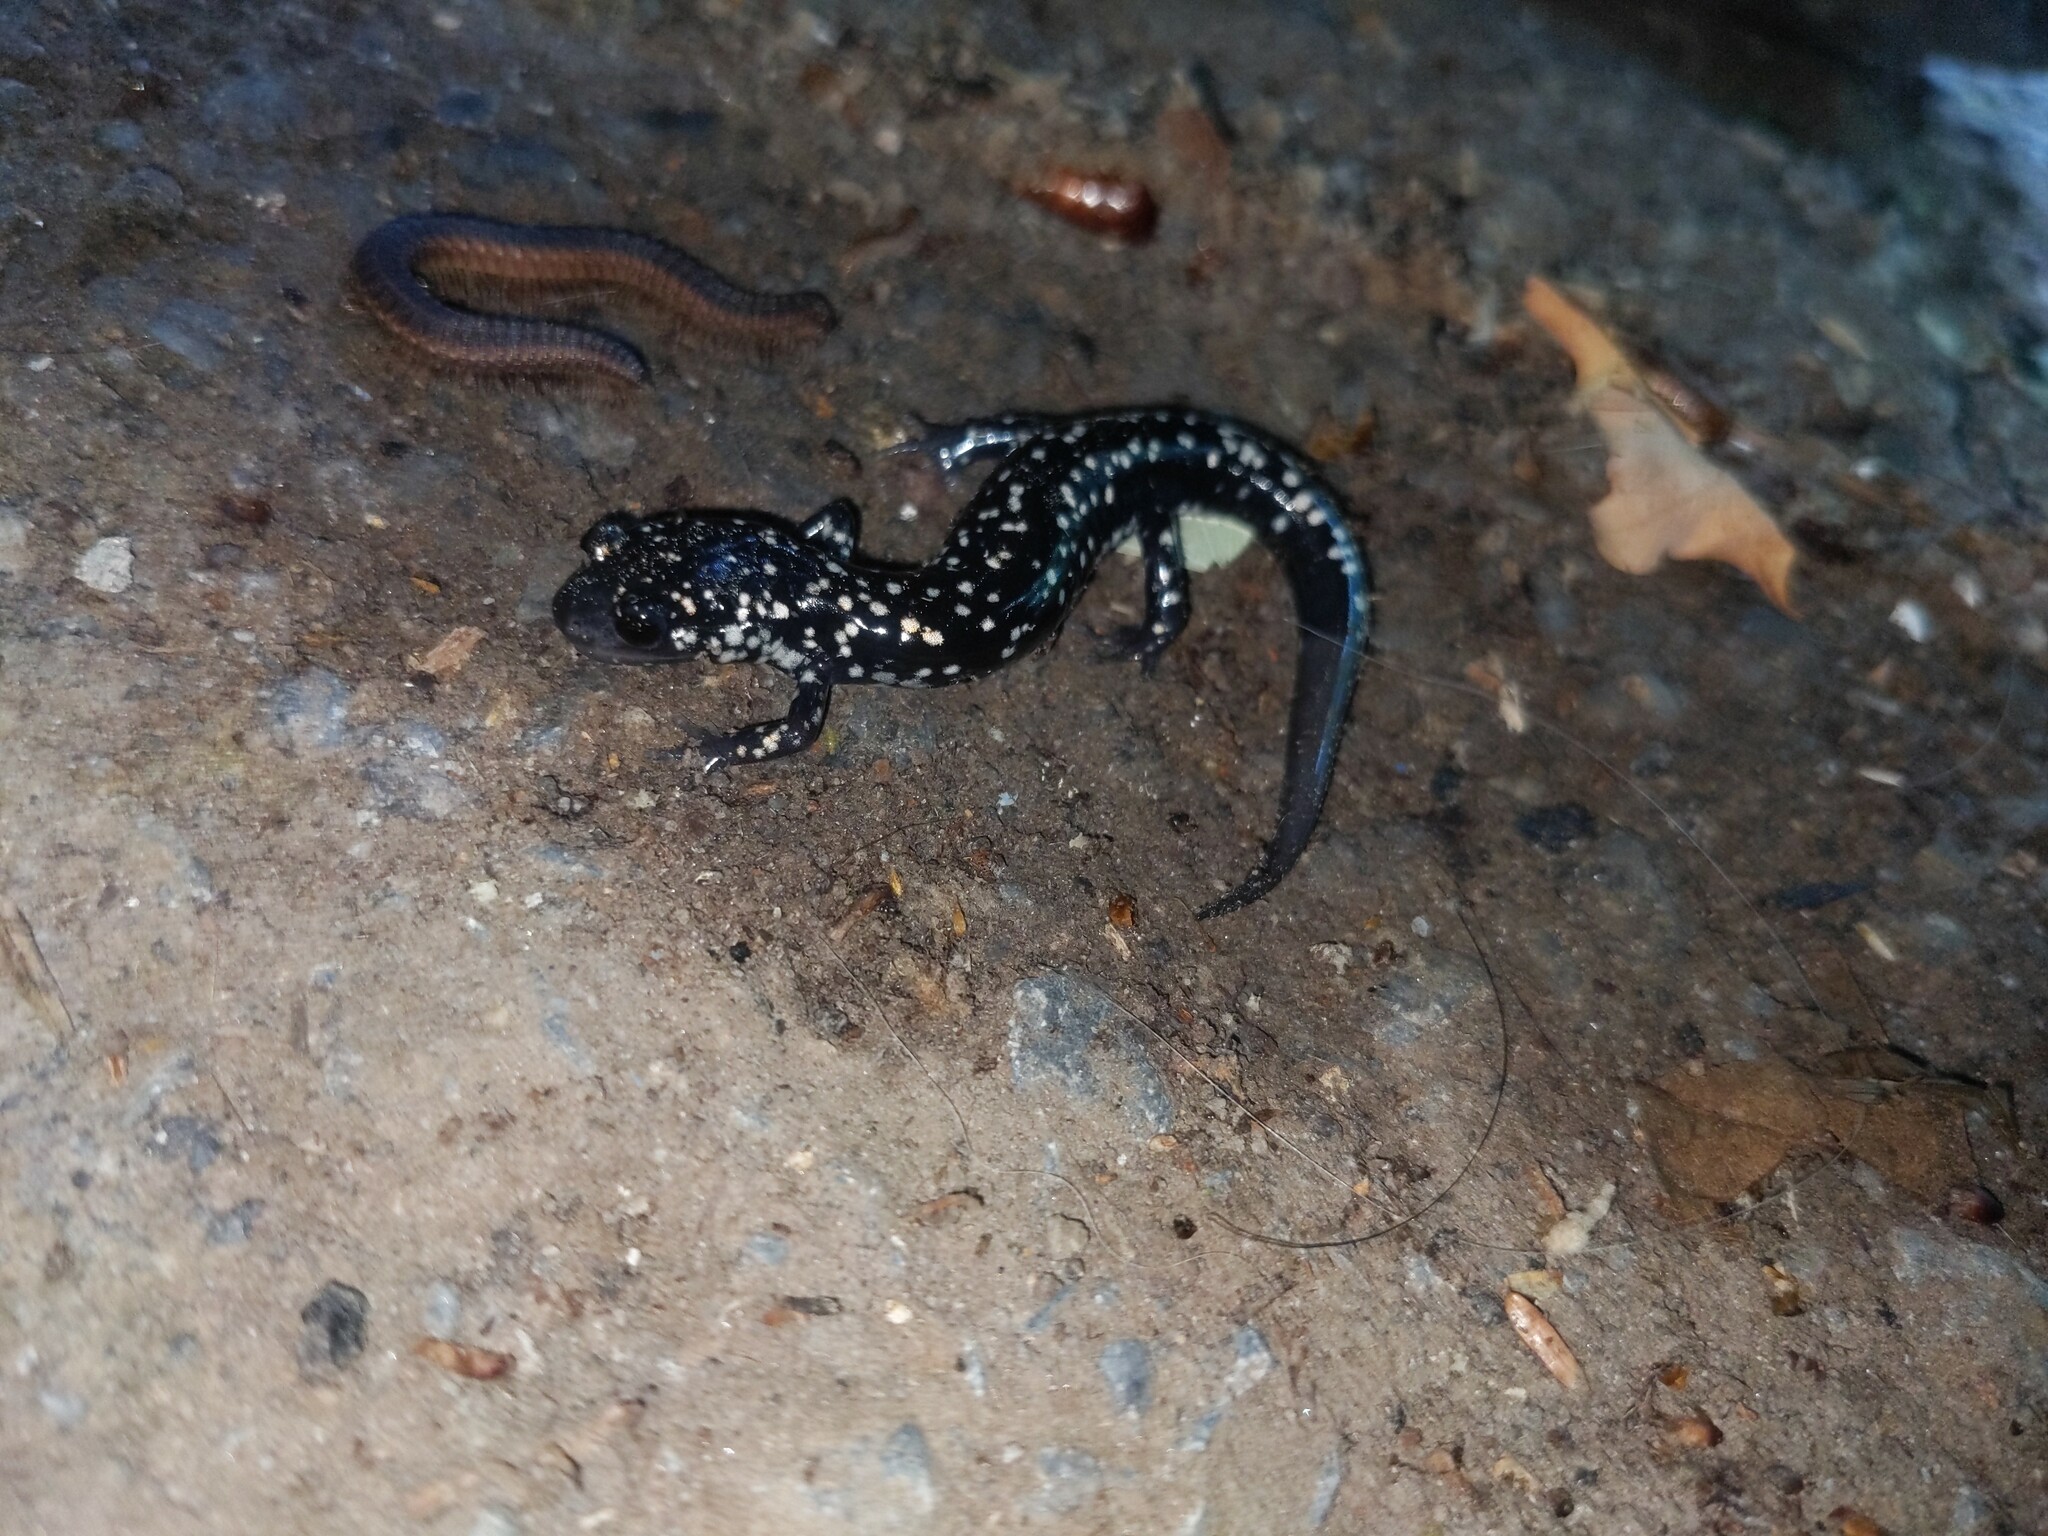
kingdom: Animalia
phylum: Chordata
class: Amphibia
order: Caudata
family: Plethodontidae
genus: Plethodon
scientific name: Plethodon glutinosus
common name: Northern slimy salamander
